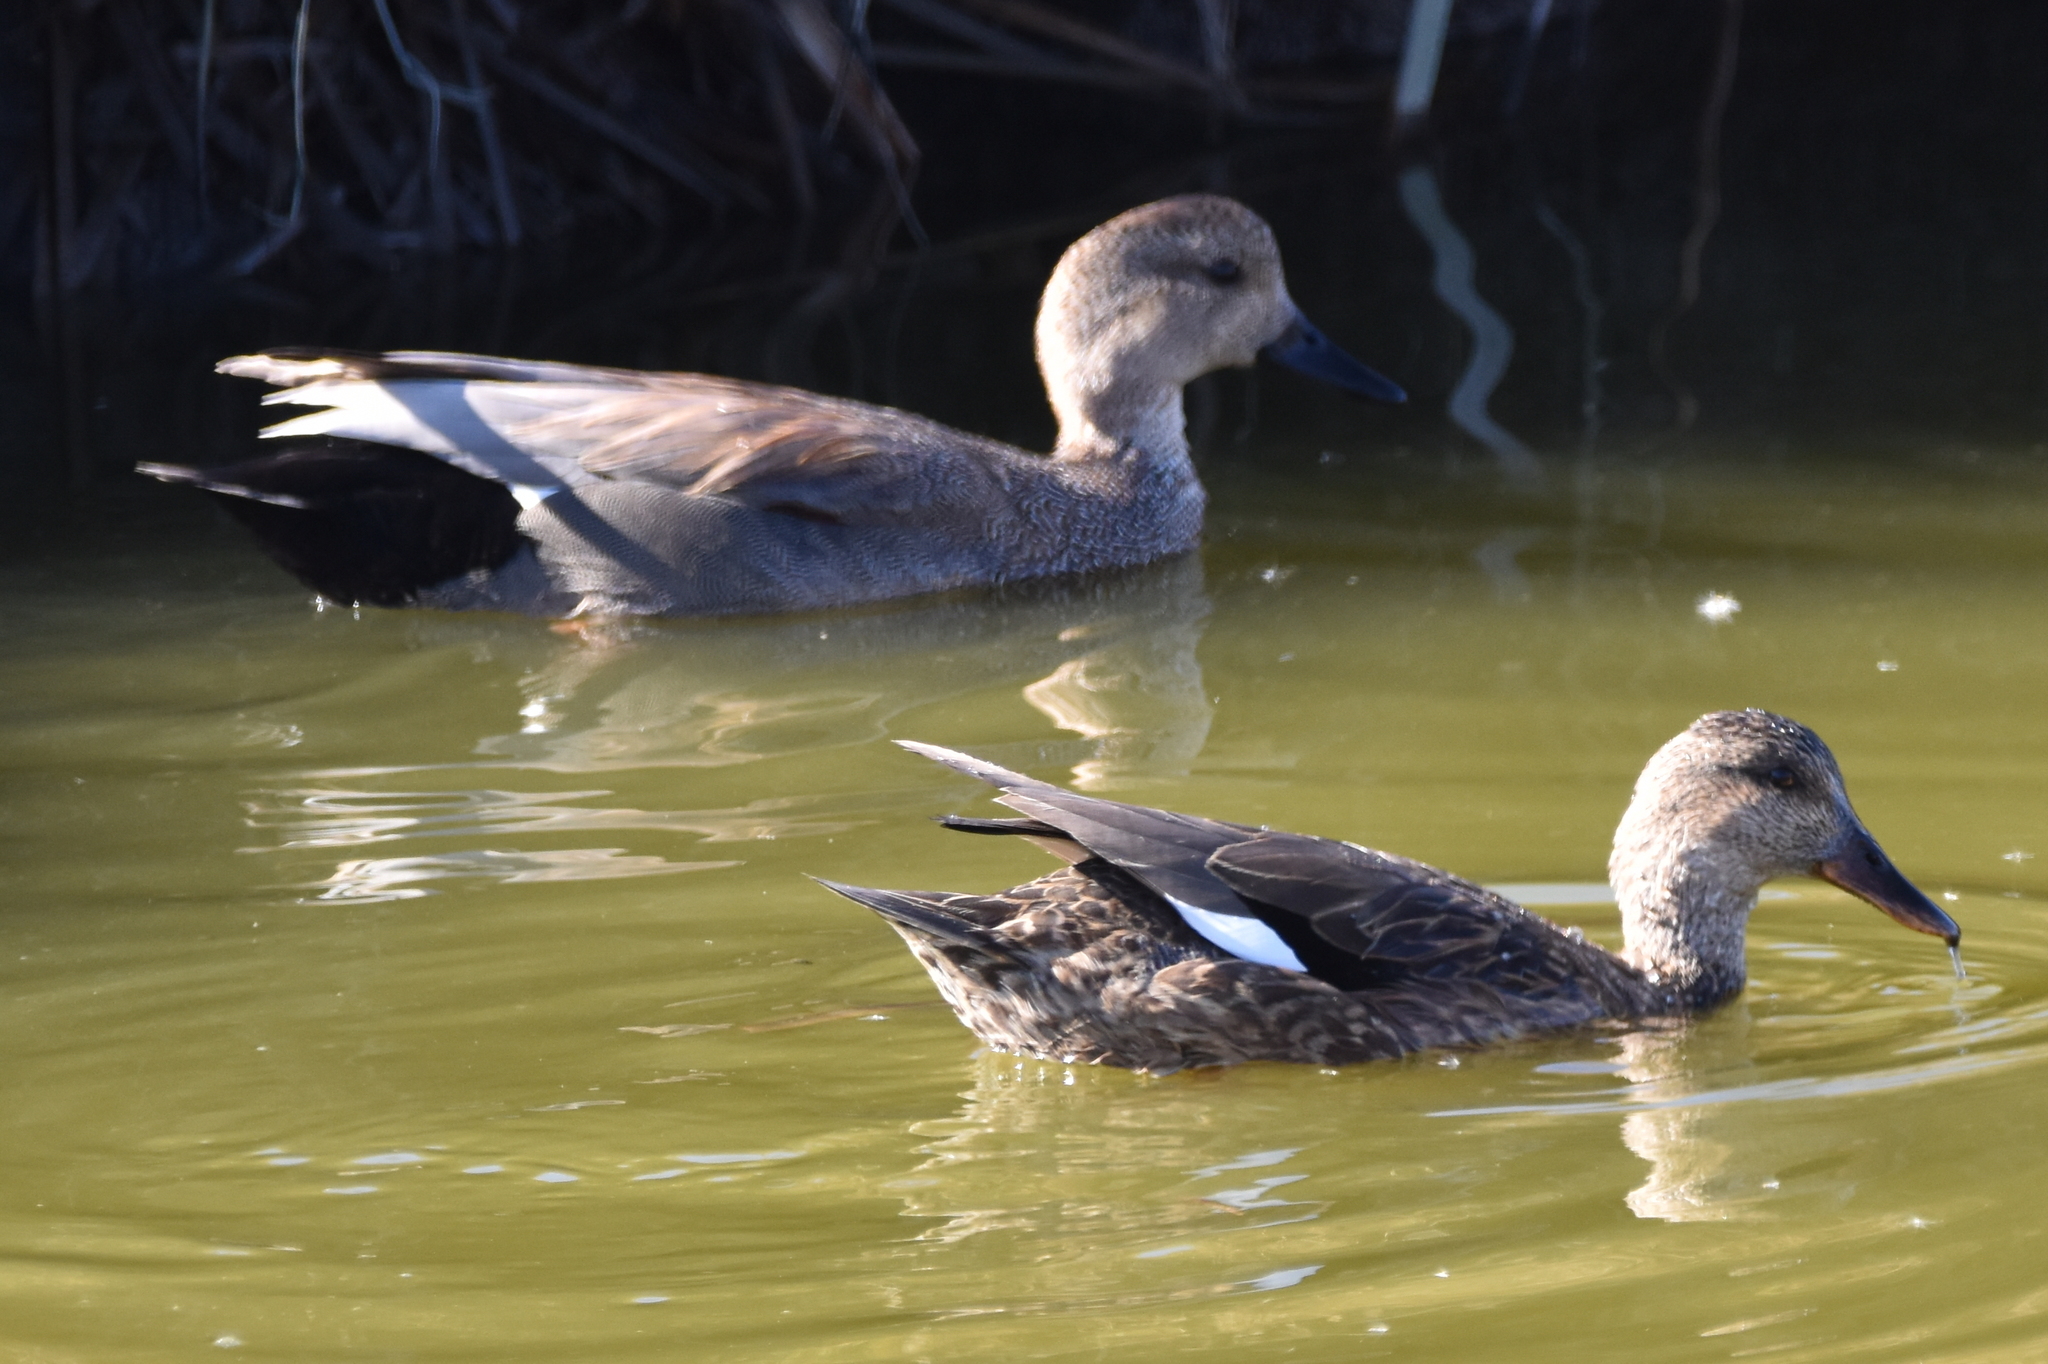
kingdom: Animalia
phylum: Chordata
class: Aves
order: Anseriformes
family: Anatidae
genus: Mareca
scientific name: Mareca strepera
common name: Gadwall
